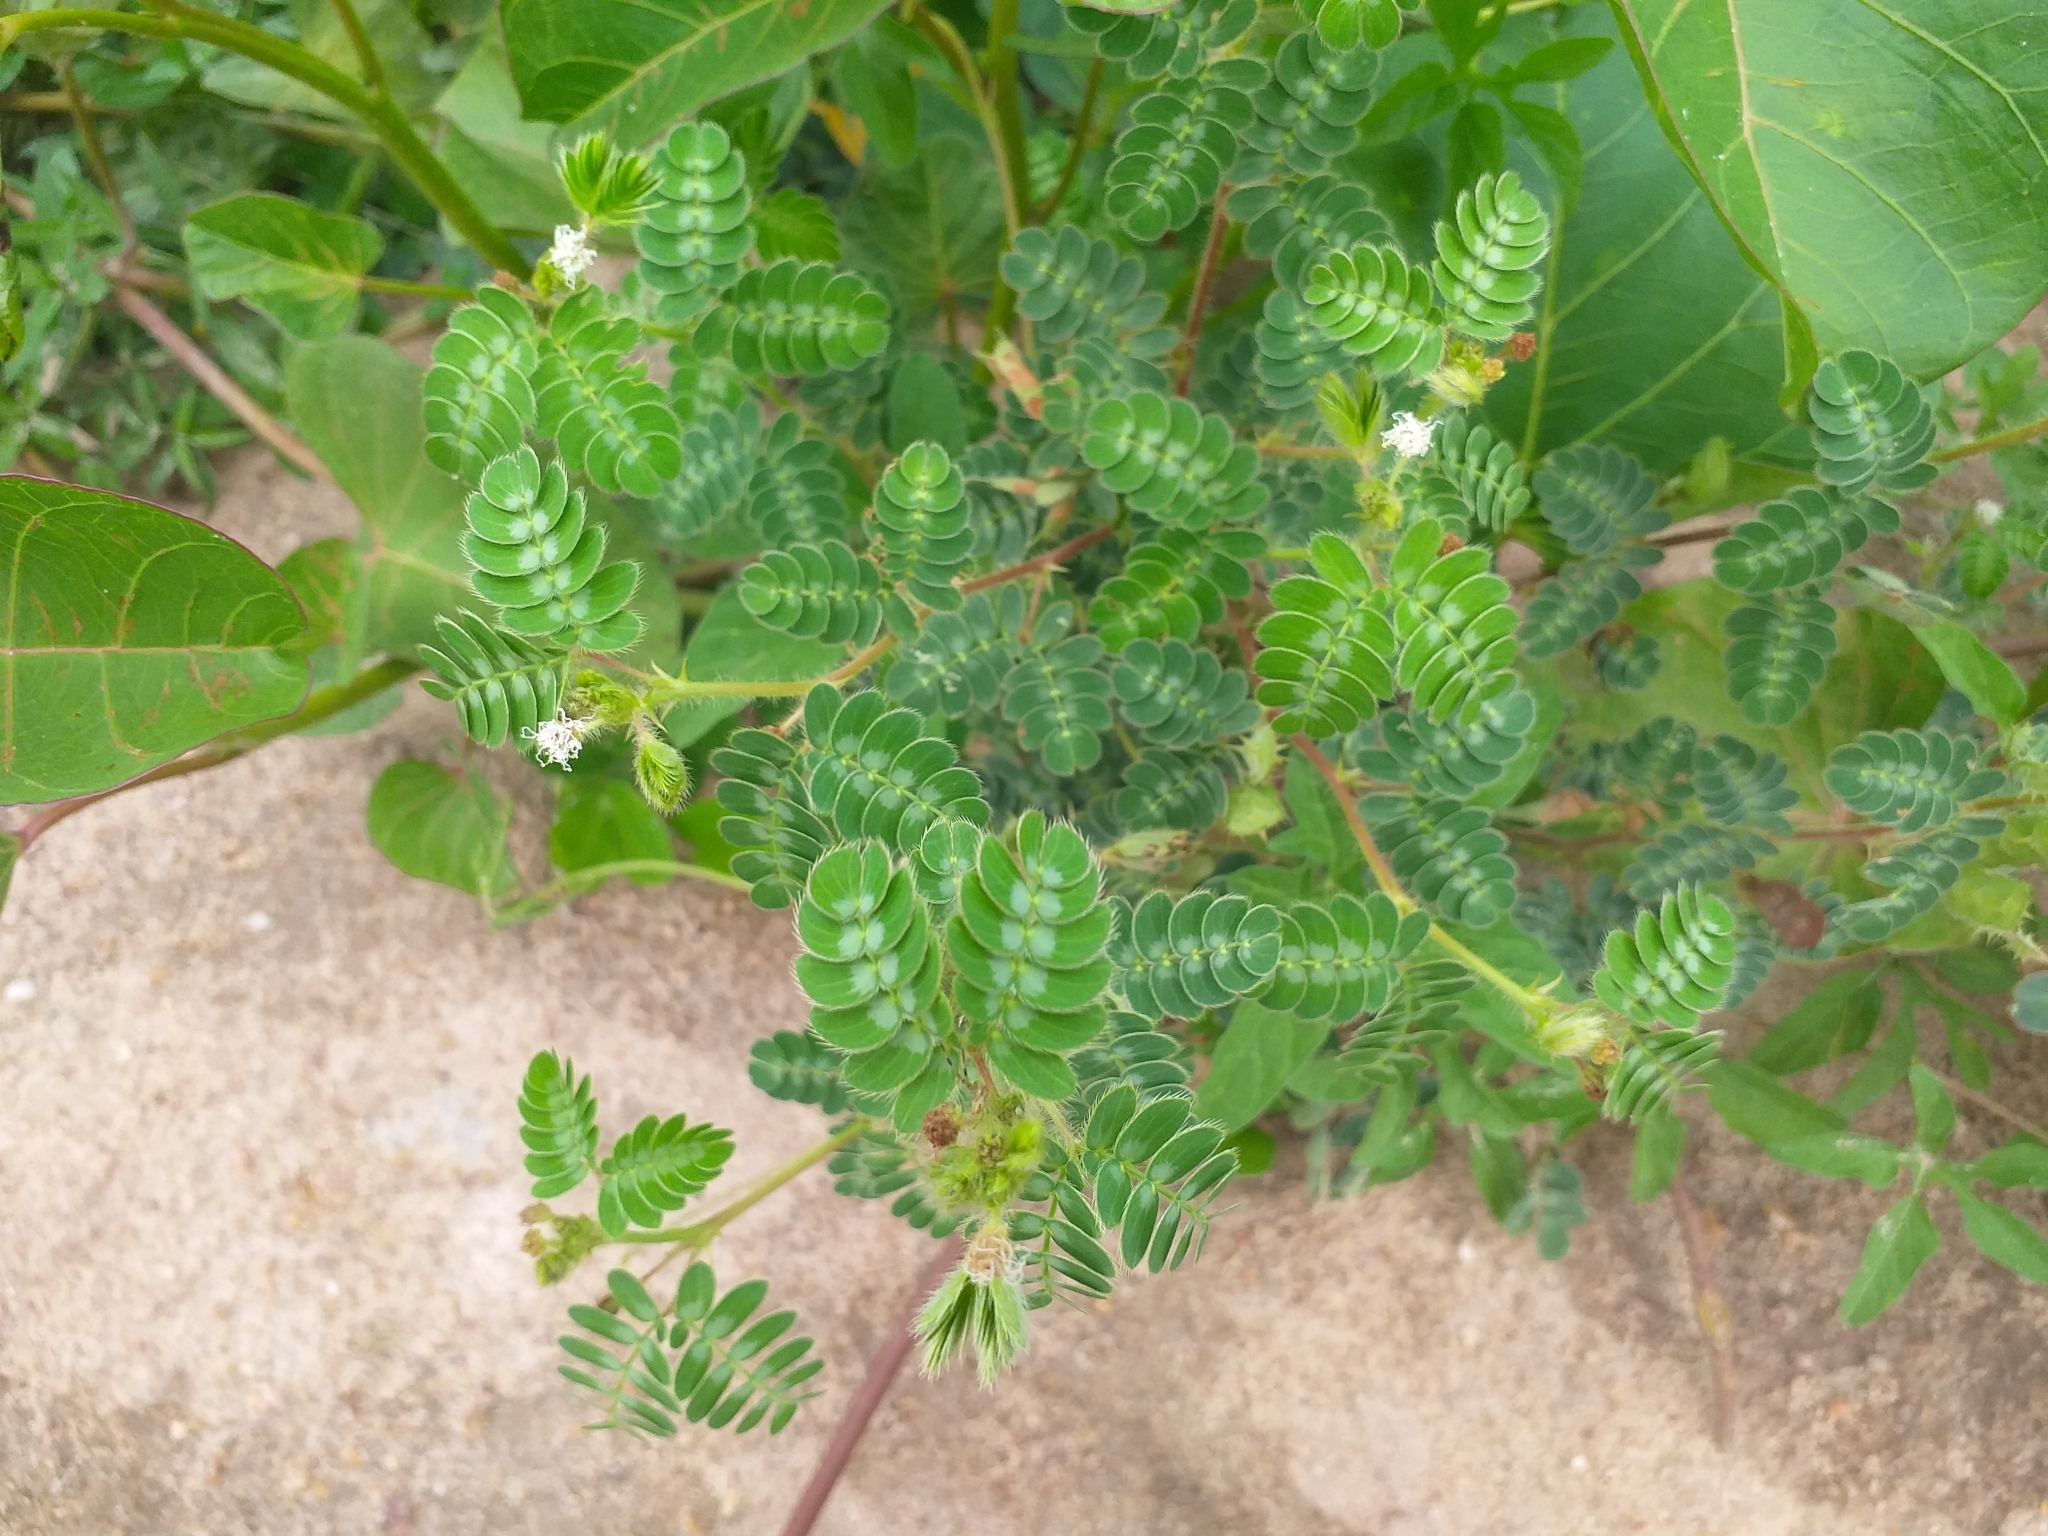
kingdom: Plantae
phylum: Tracheophyta
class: Magnoliopsida
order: Fabales
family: Fabaceae
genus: Mimosa
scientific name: Mimosa ursina
